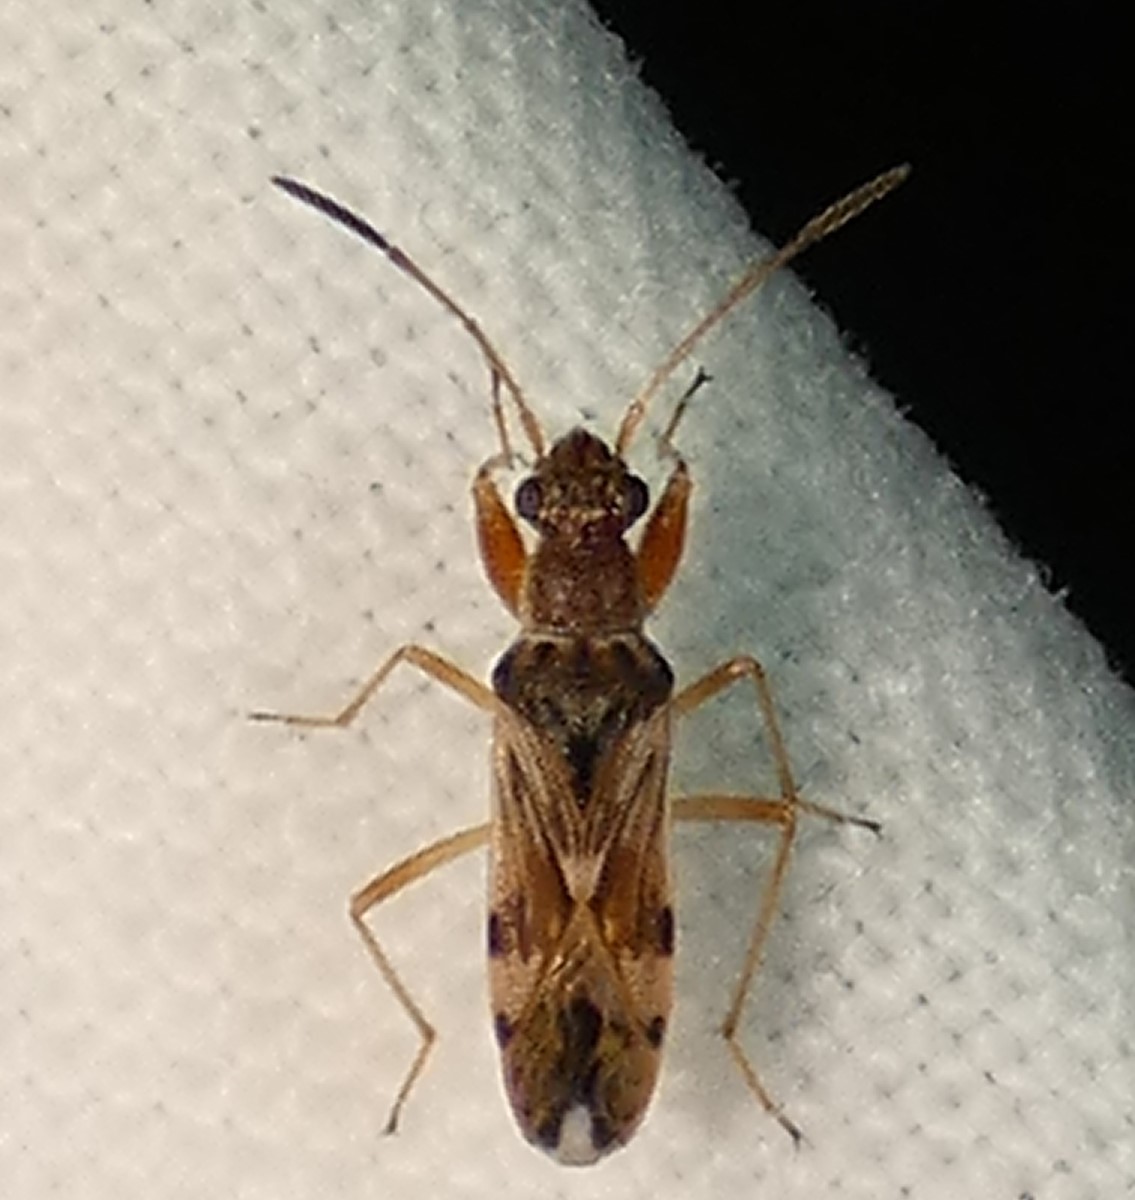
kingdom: Animalia
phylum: Arthropoda
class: Insecta
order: Hemiptera
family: Rhyparochromidae
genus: Neopamera
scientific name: Neopamera bilobata
